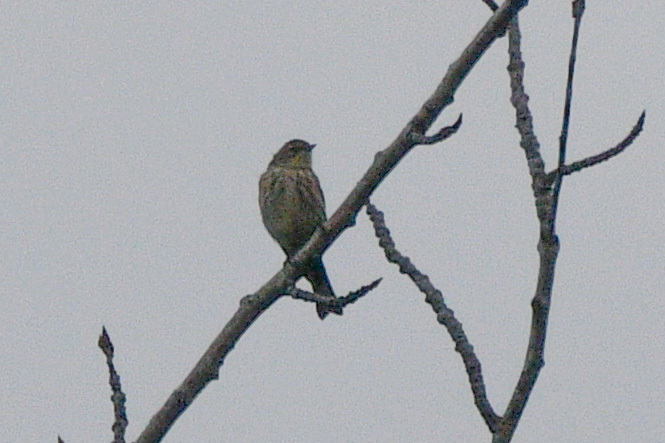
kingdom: Animalia
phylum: Chordata
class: Aves
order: Passeriformes
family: Parulidae
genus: Setophaga
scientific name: Setophaga coronata
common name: Myrtle warbler
